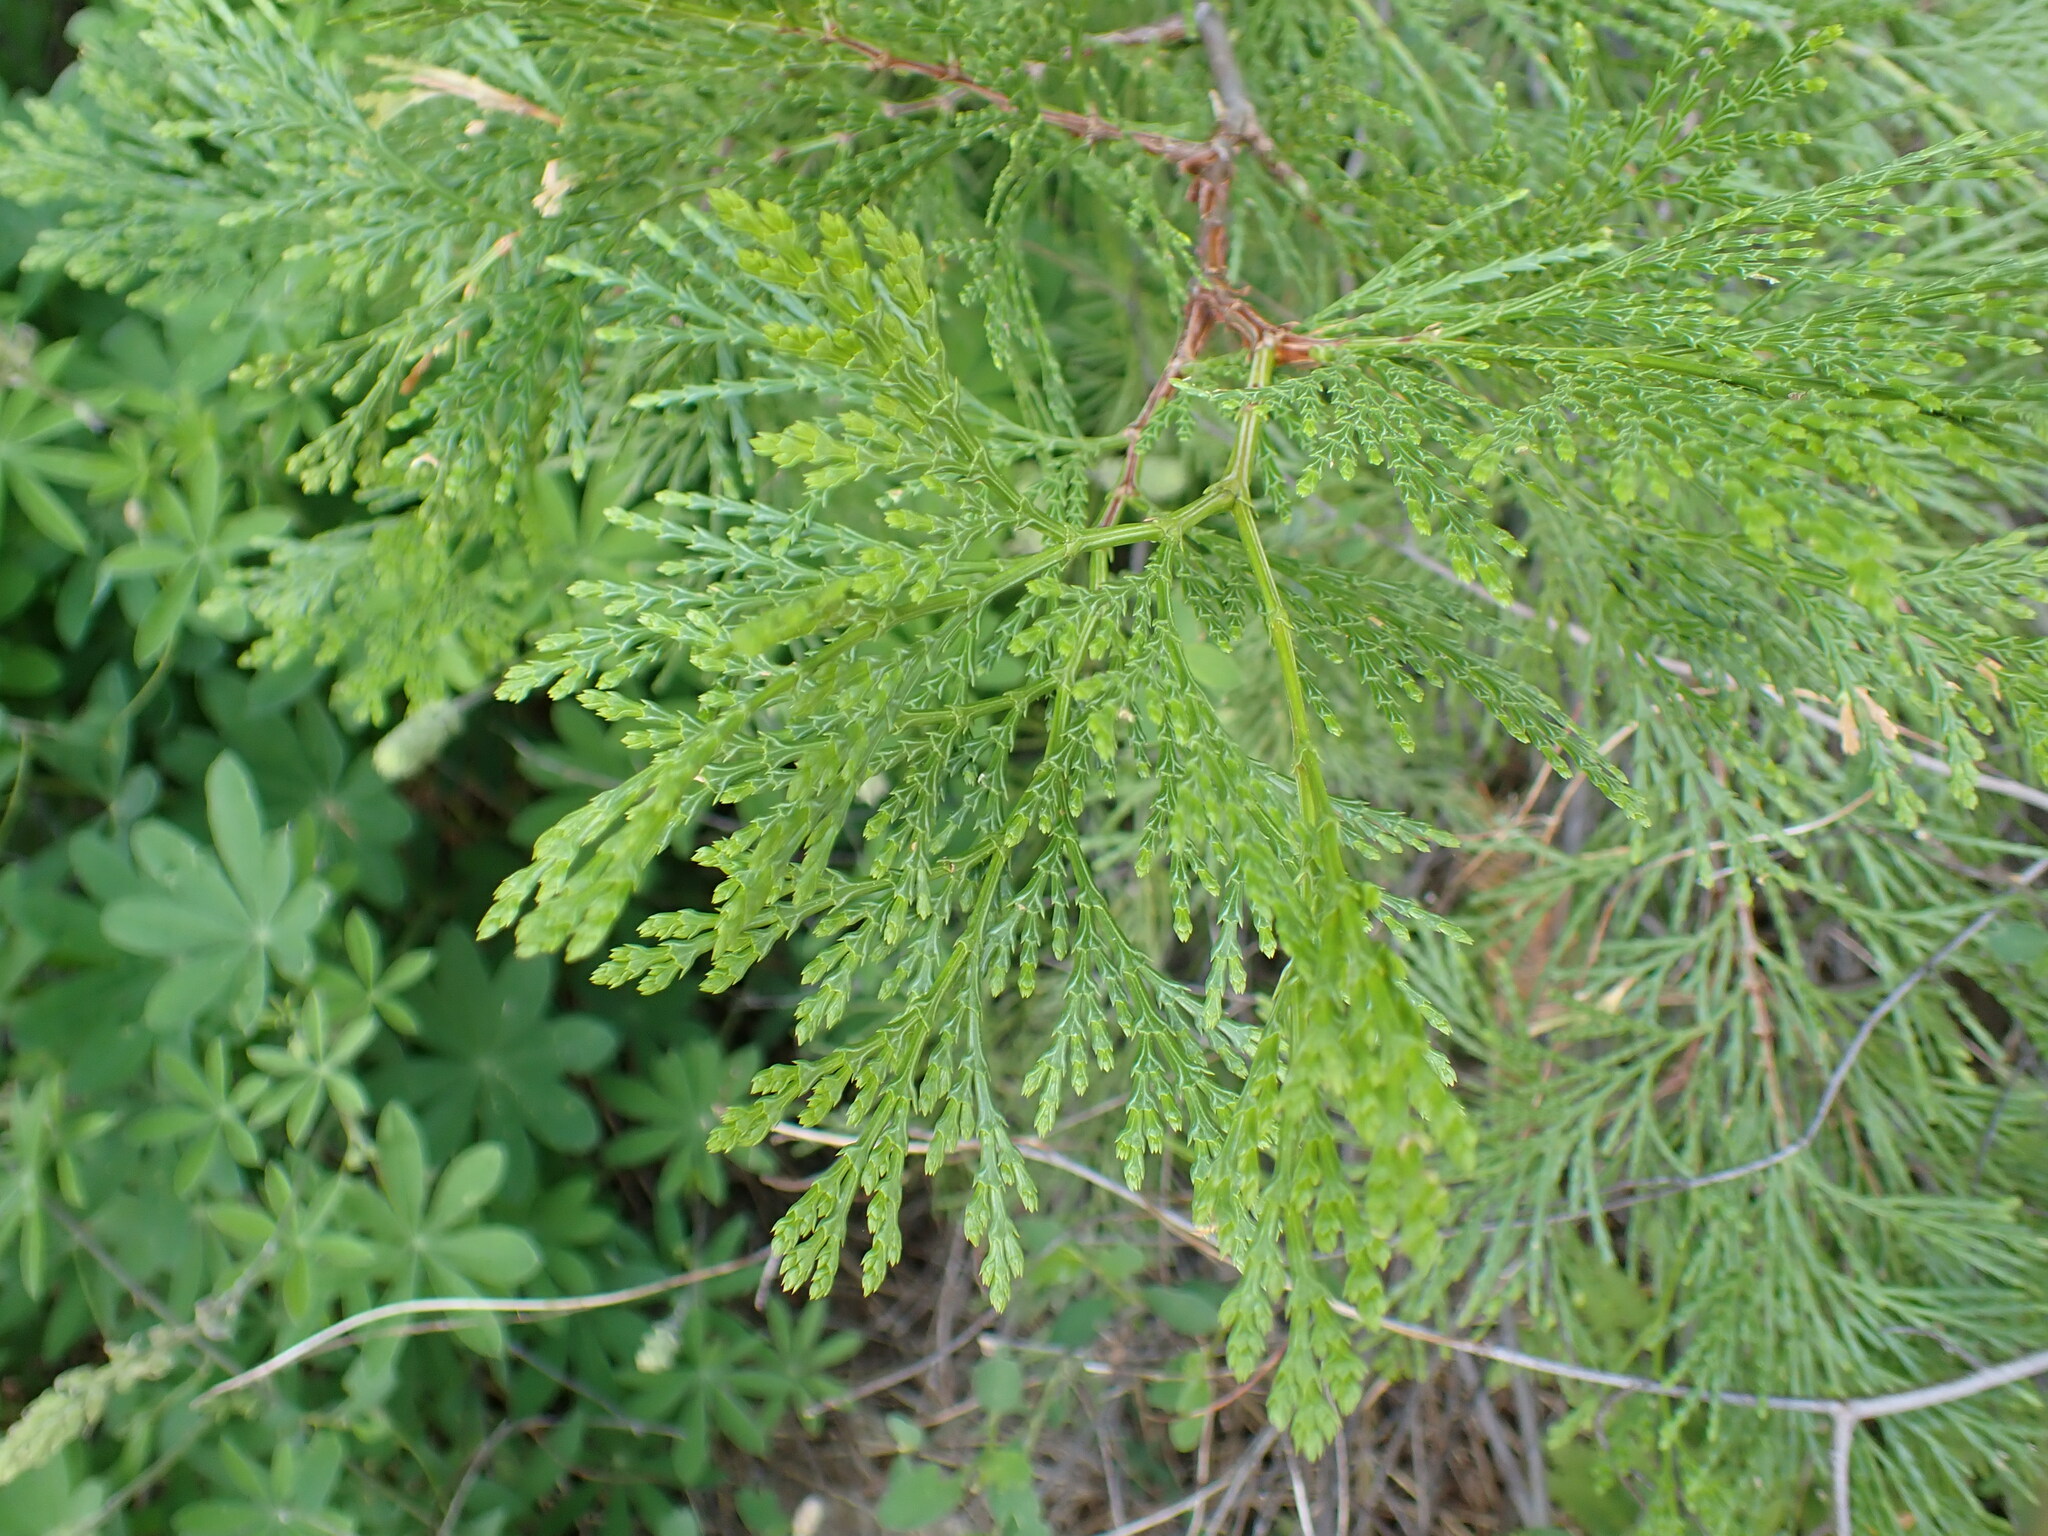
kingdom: Plantae
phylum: Tracheophyta
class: Pinopsida
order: Pinales
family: Cupressaceae
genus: Calocedrus
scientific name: Calocedrus decurrens
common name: Californian incense-cedar
